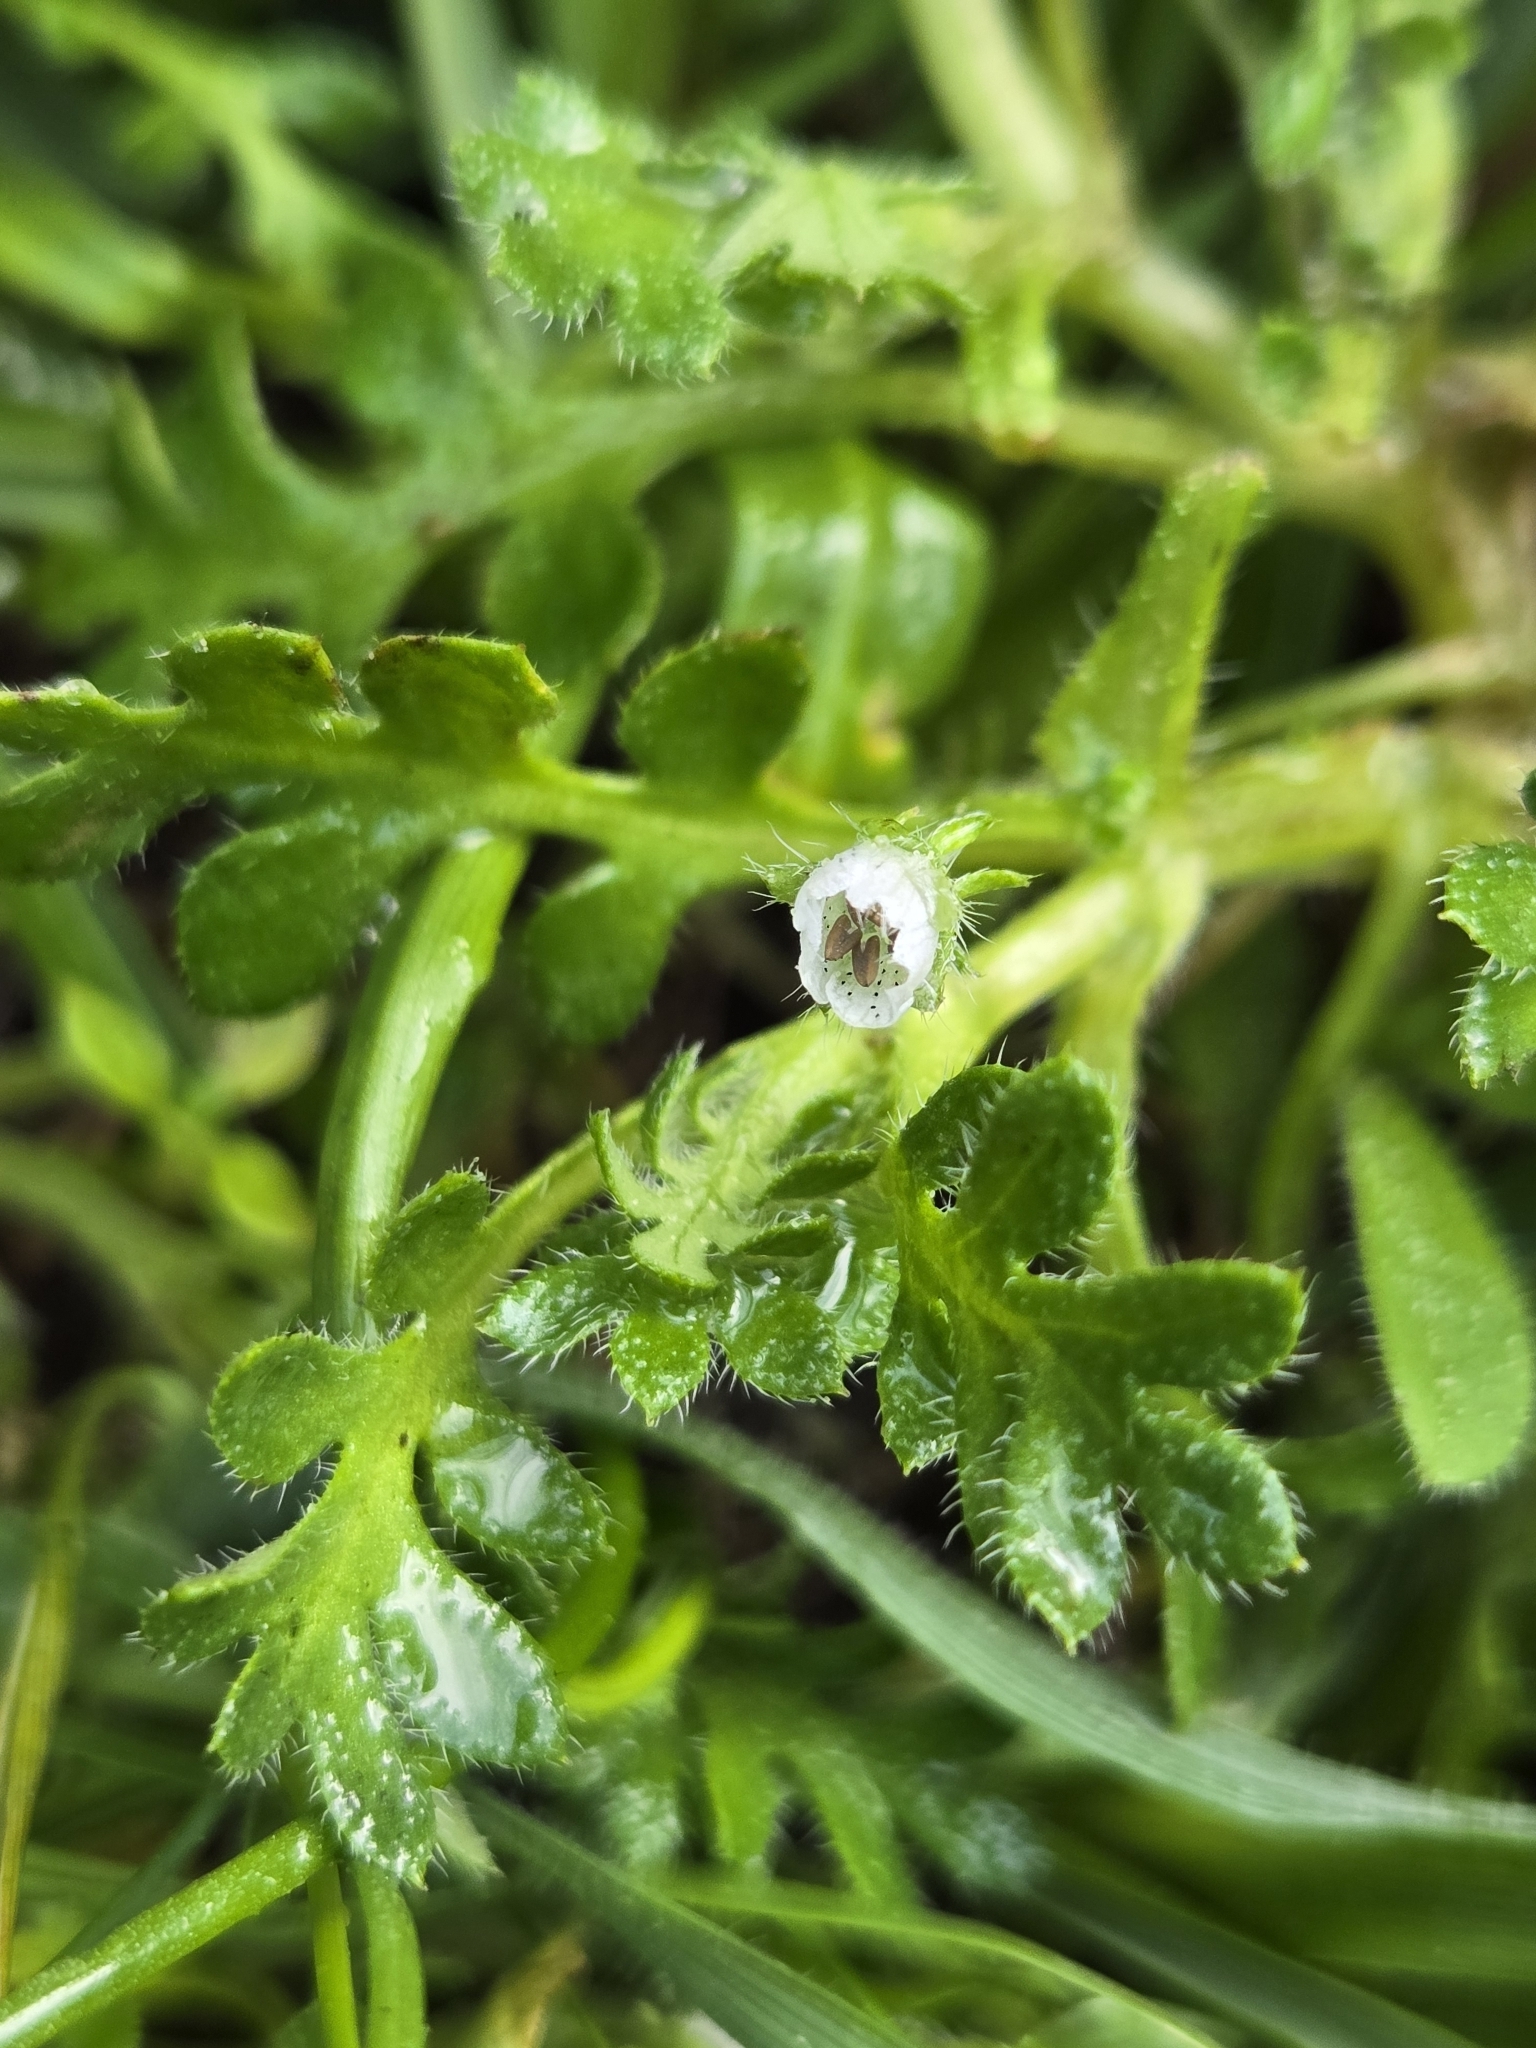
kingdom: Plantae
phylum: Tracheophyta
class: Magnoliopsida
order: Boraginales
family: Hydrophyllaceae
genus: Nemophila
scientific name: Nemophila pedunculata
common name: Little-foot baby-blue-eyes
